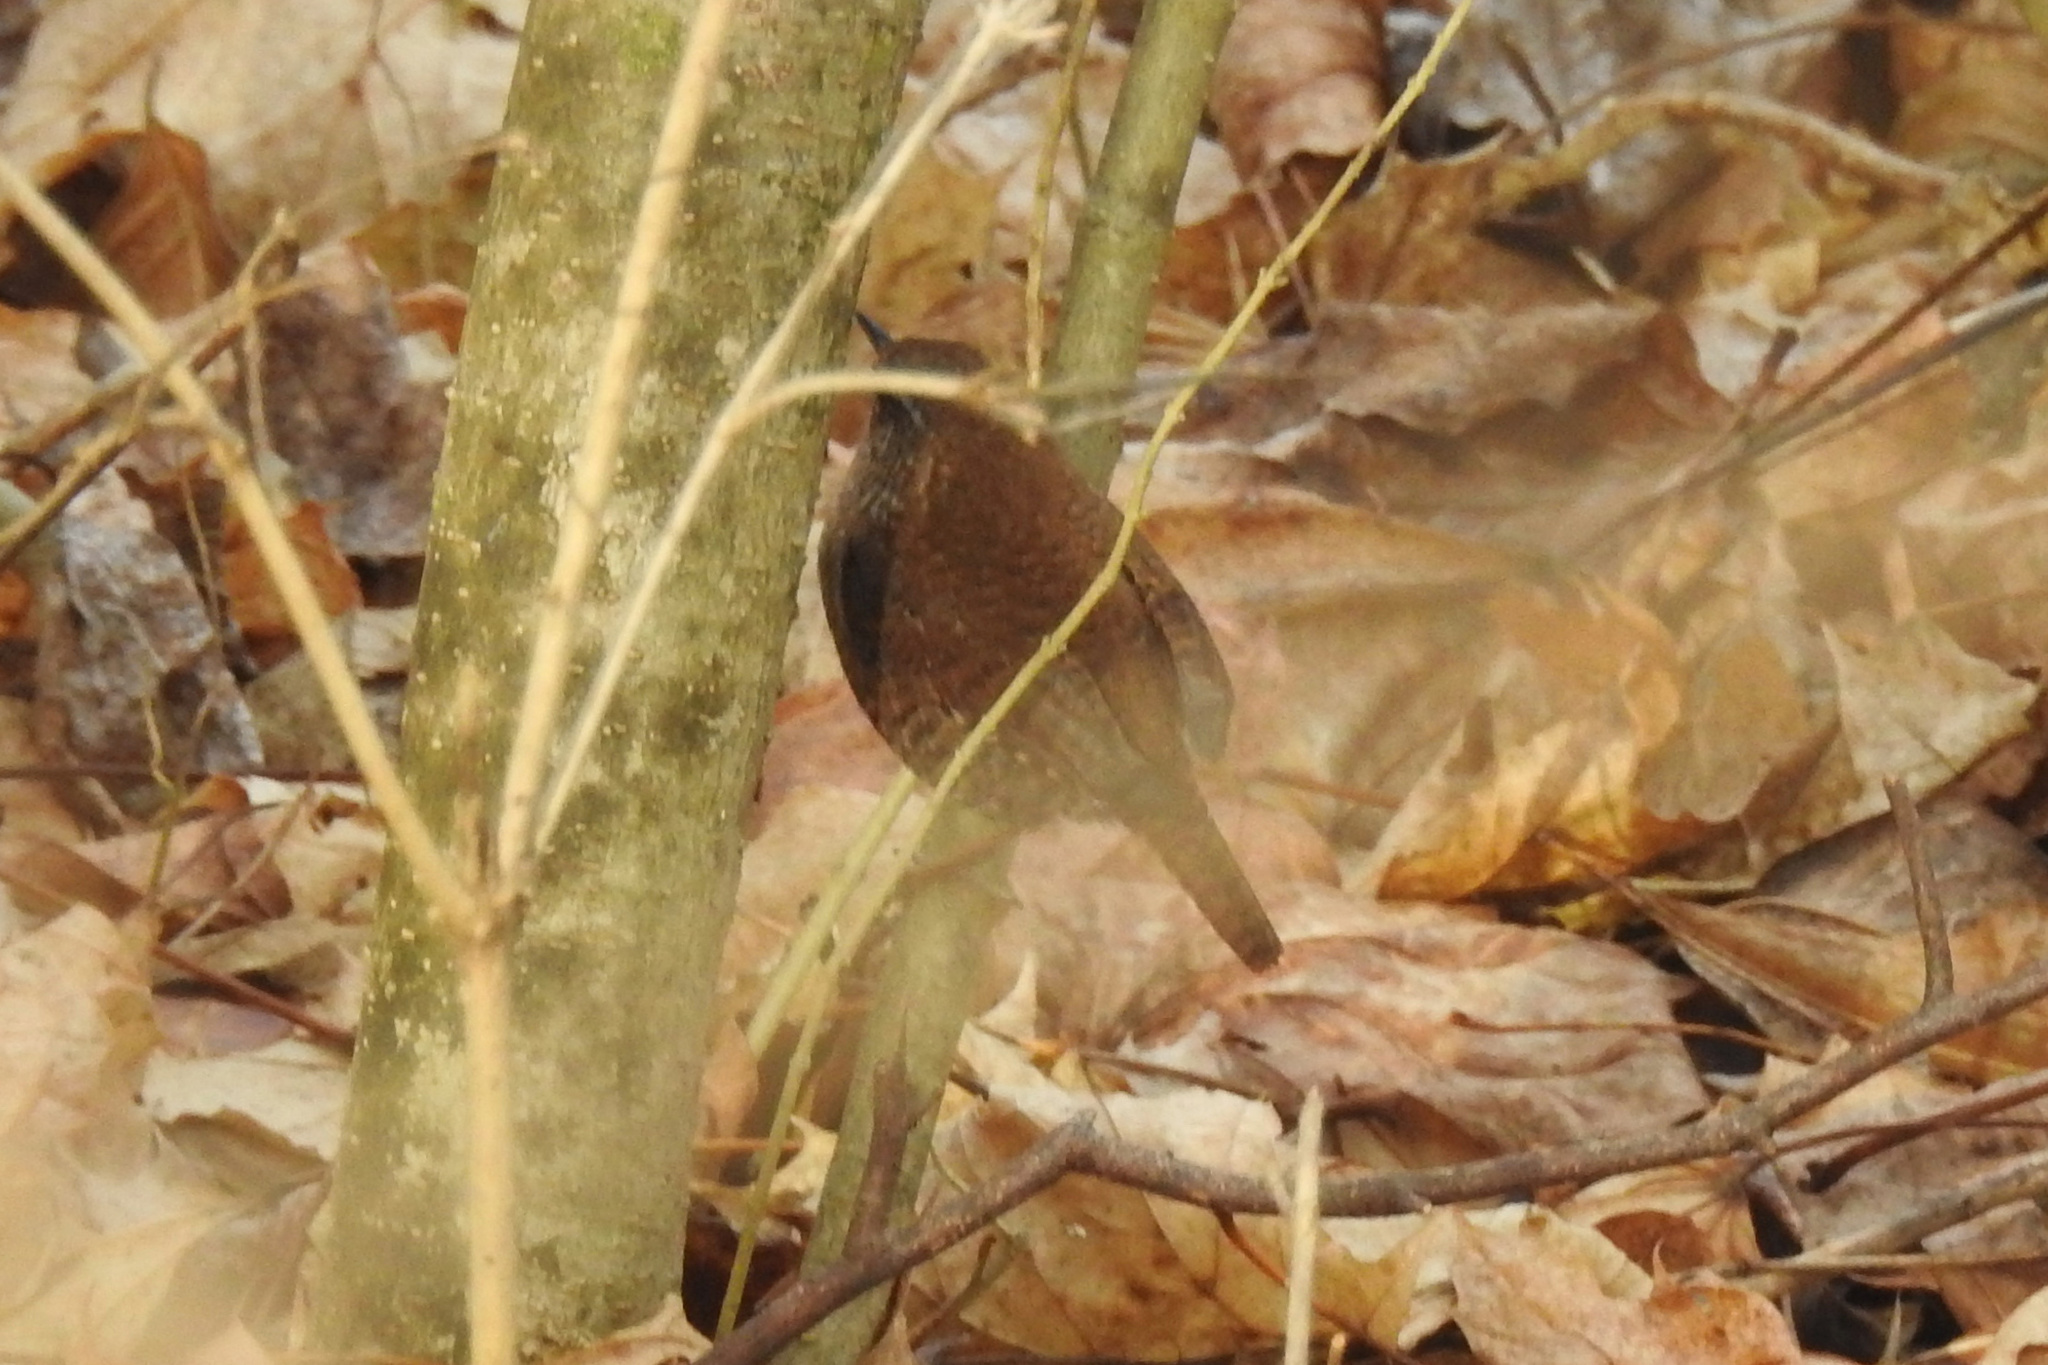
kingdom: Animalia
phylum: Chordata
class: Aves
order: Passeriformes
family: Troglodytidae
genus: Troglodytes
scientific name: Troglodytes hiemalis
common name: Winter wren
